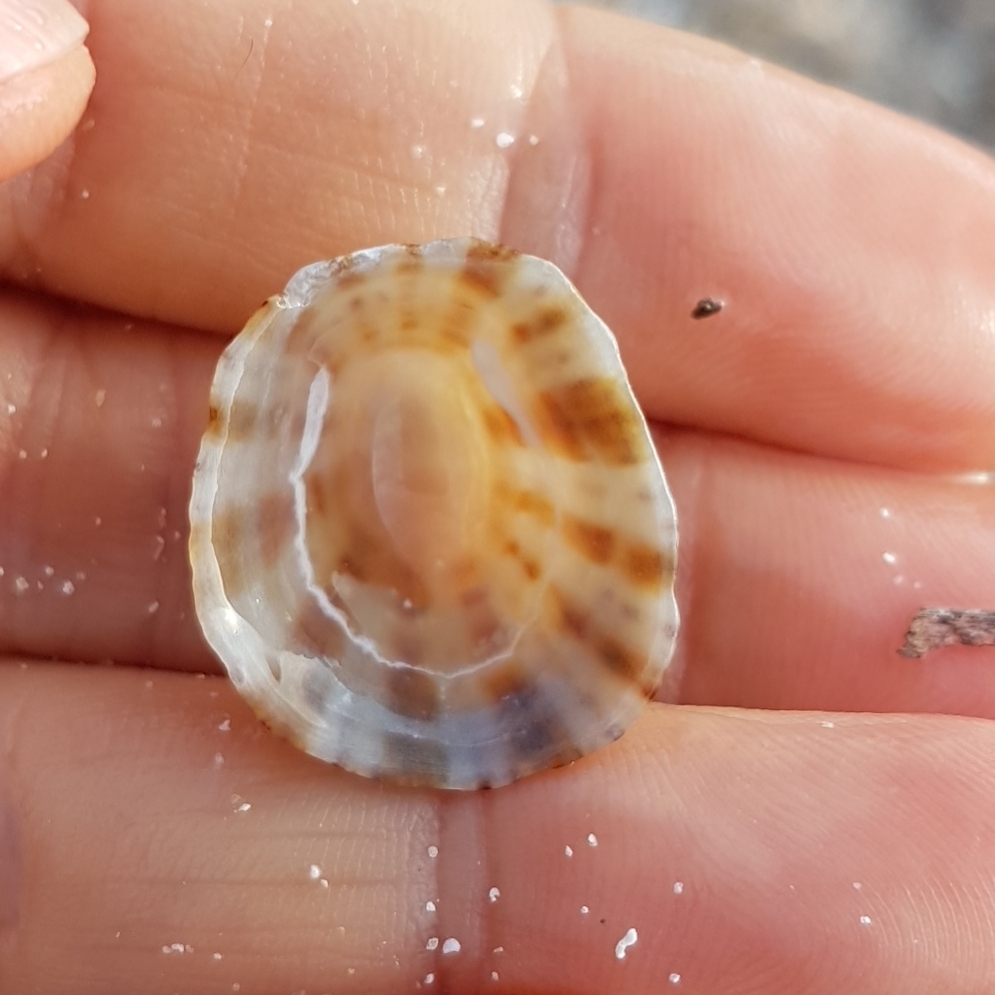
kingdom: Animalia
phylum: Mollusca
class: Gastropoda
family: Patellidae
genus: Patella
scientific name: Patella rustica
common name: Lusitanian limpet
